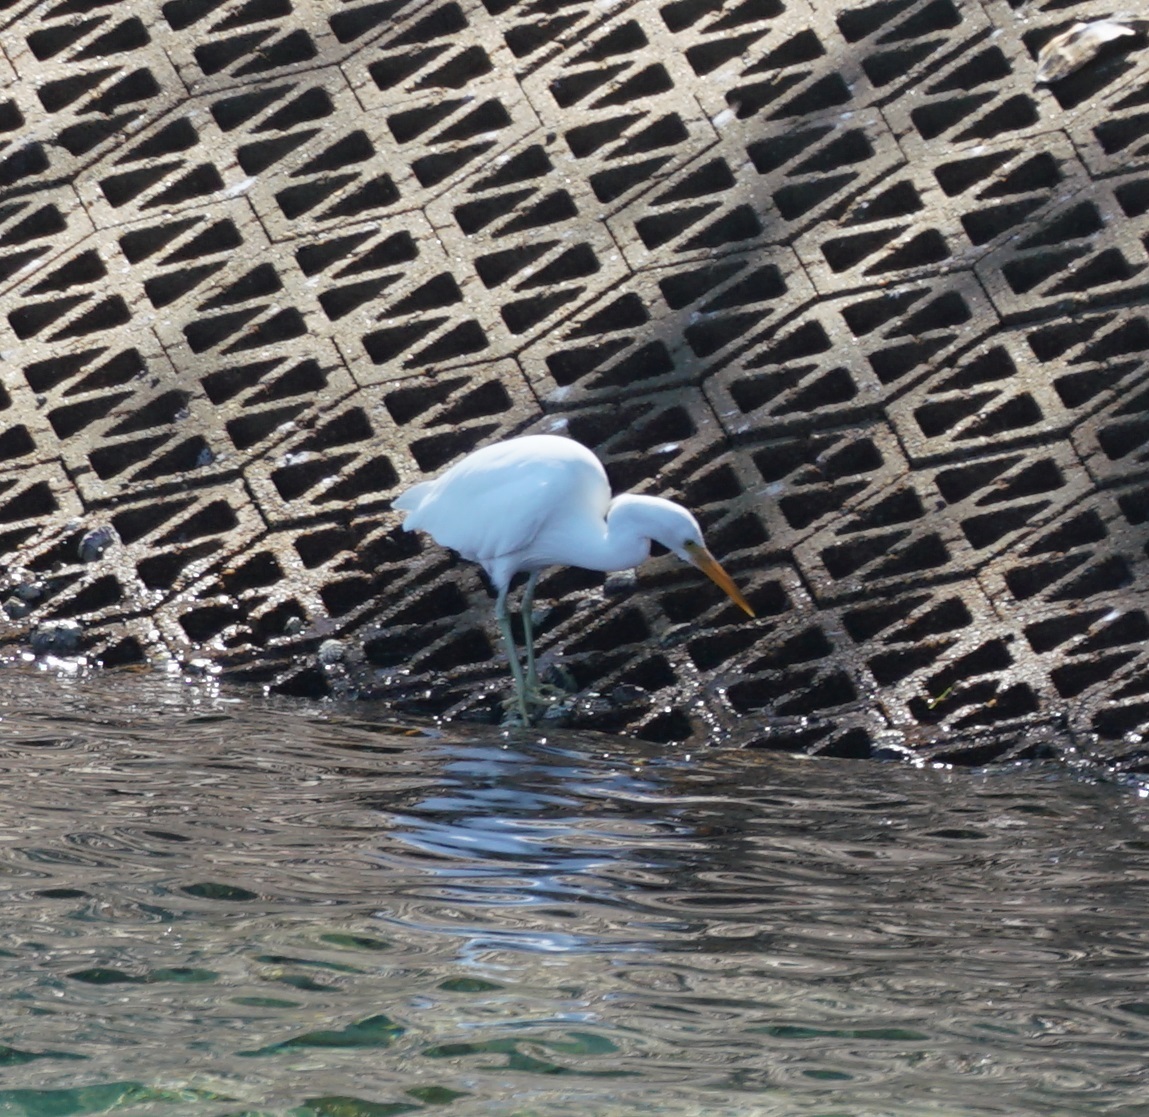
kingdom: Animalia
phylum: Chordata
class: Aves
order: Pelecaniformes
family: Ardeidae
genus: Egretta
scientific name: Egretta sacra
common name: Pacific reef heron
